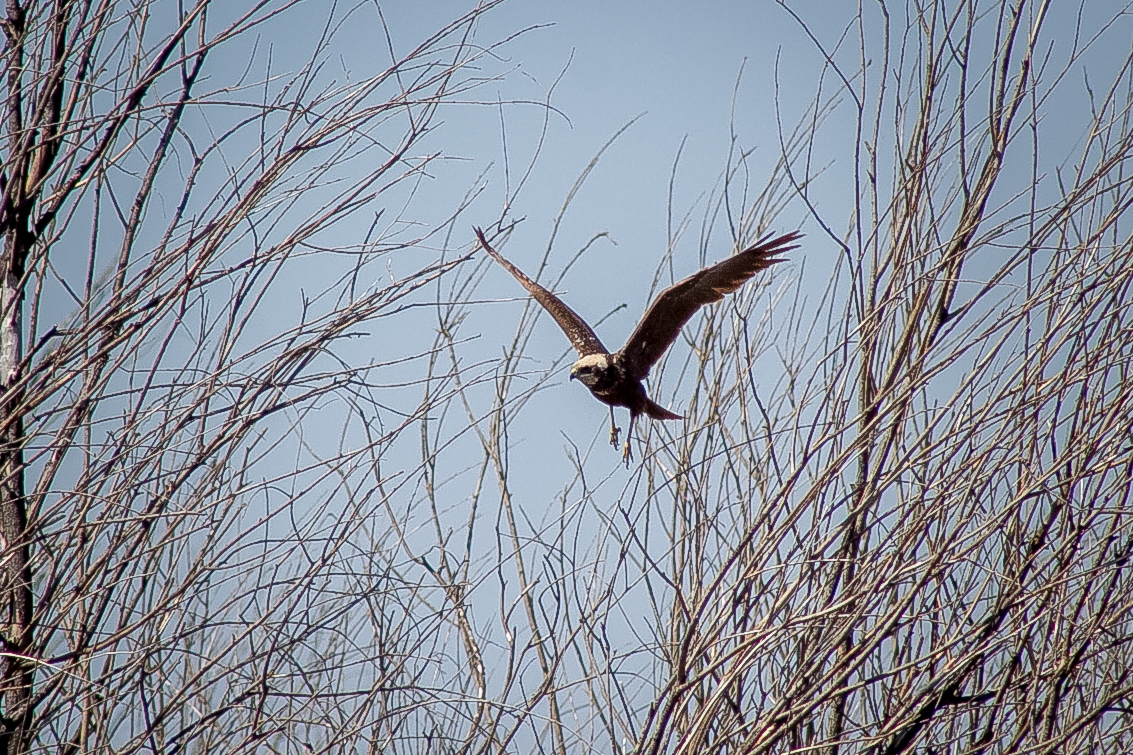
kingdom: Animalia
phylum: Chordata
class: Aves
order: Accipitriformes
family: Accipitridae
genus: Circus
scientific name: Circus aeruginosus
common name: Western marsh harrier
